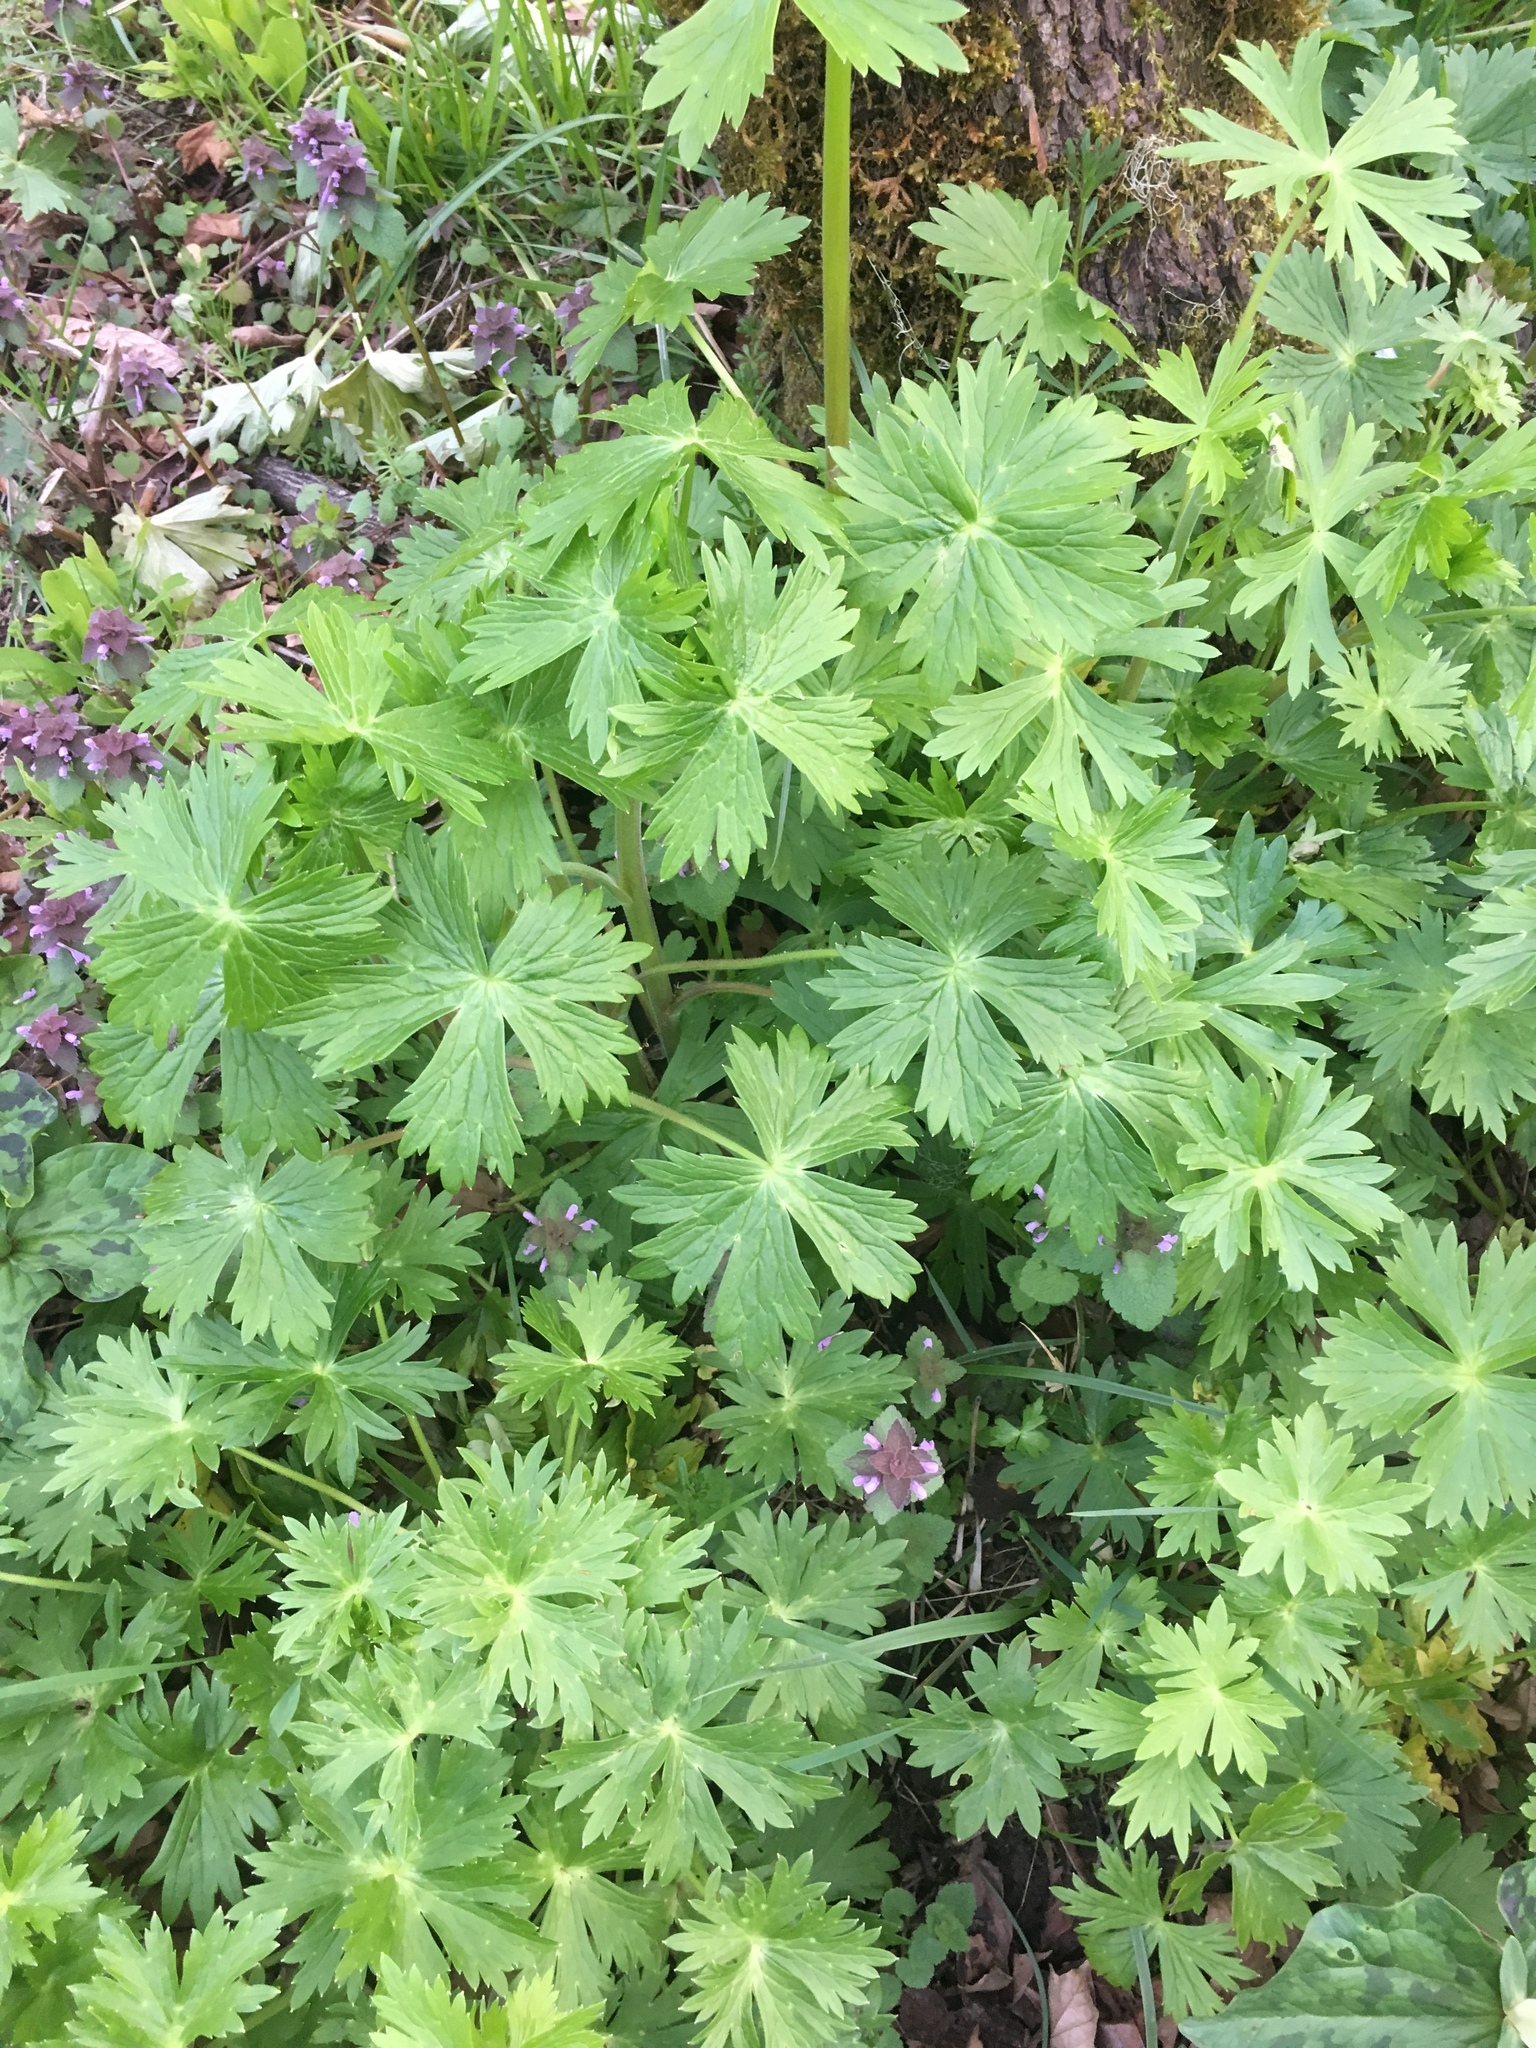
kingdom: Plantae
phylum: Tracheophyta
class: Magnoliopsida
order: Ranunculales
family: Ranunculaceae
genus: Delphinium
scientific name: Delphinium trolliifolium
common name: Cow-poison
